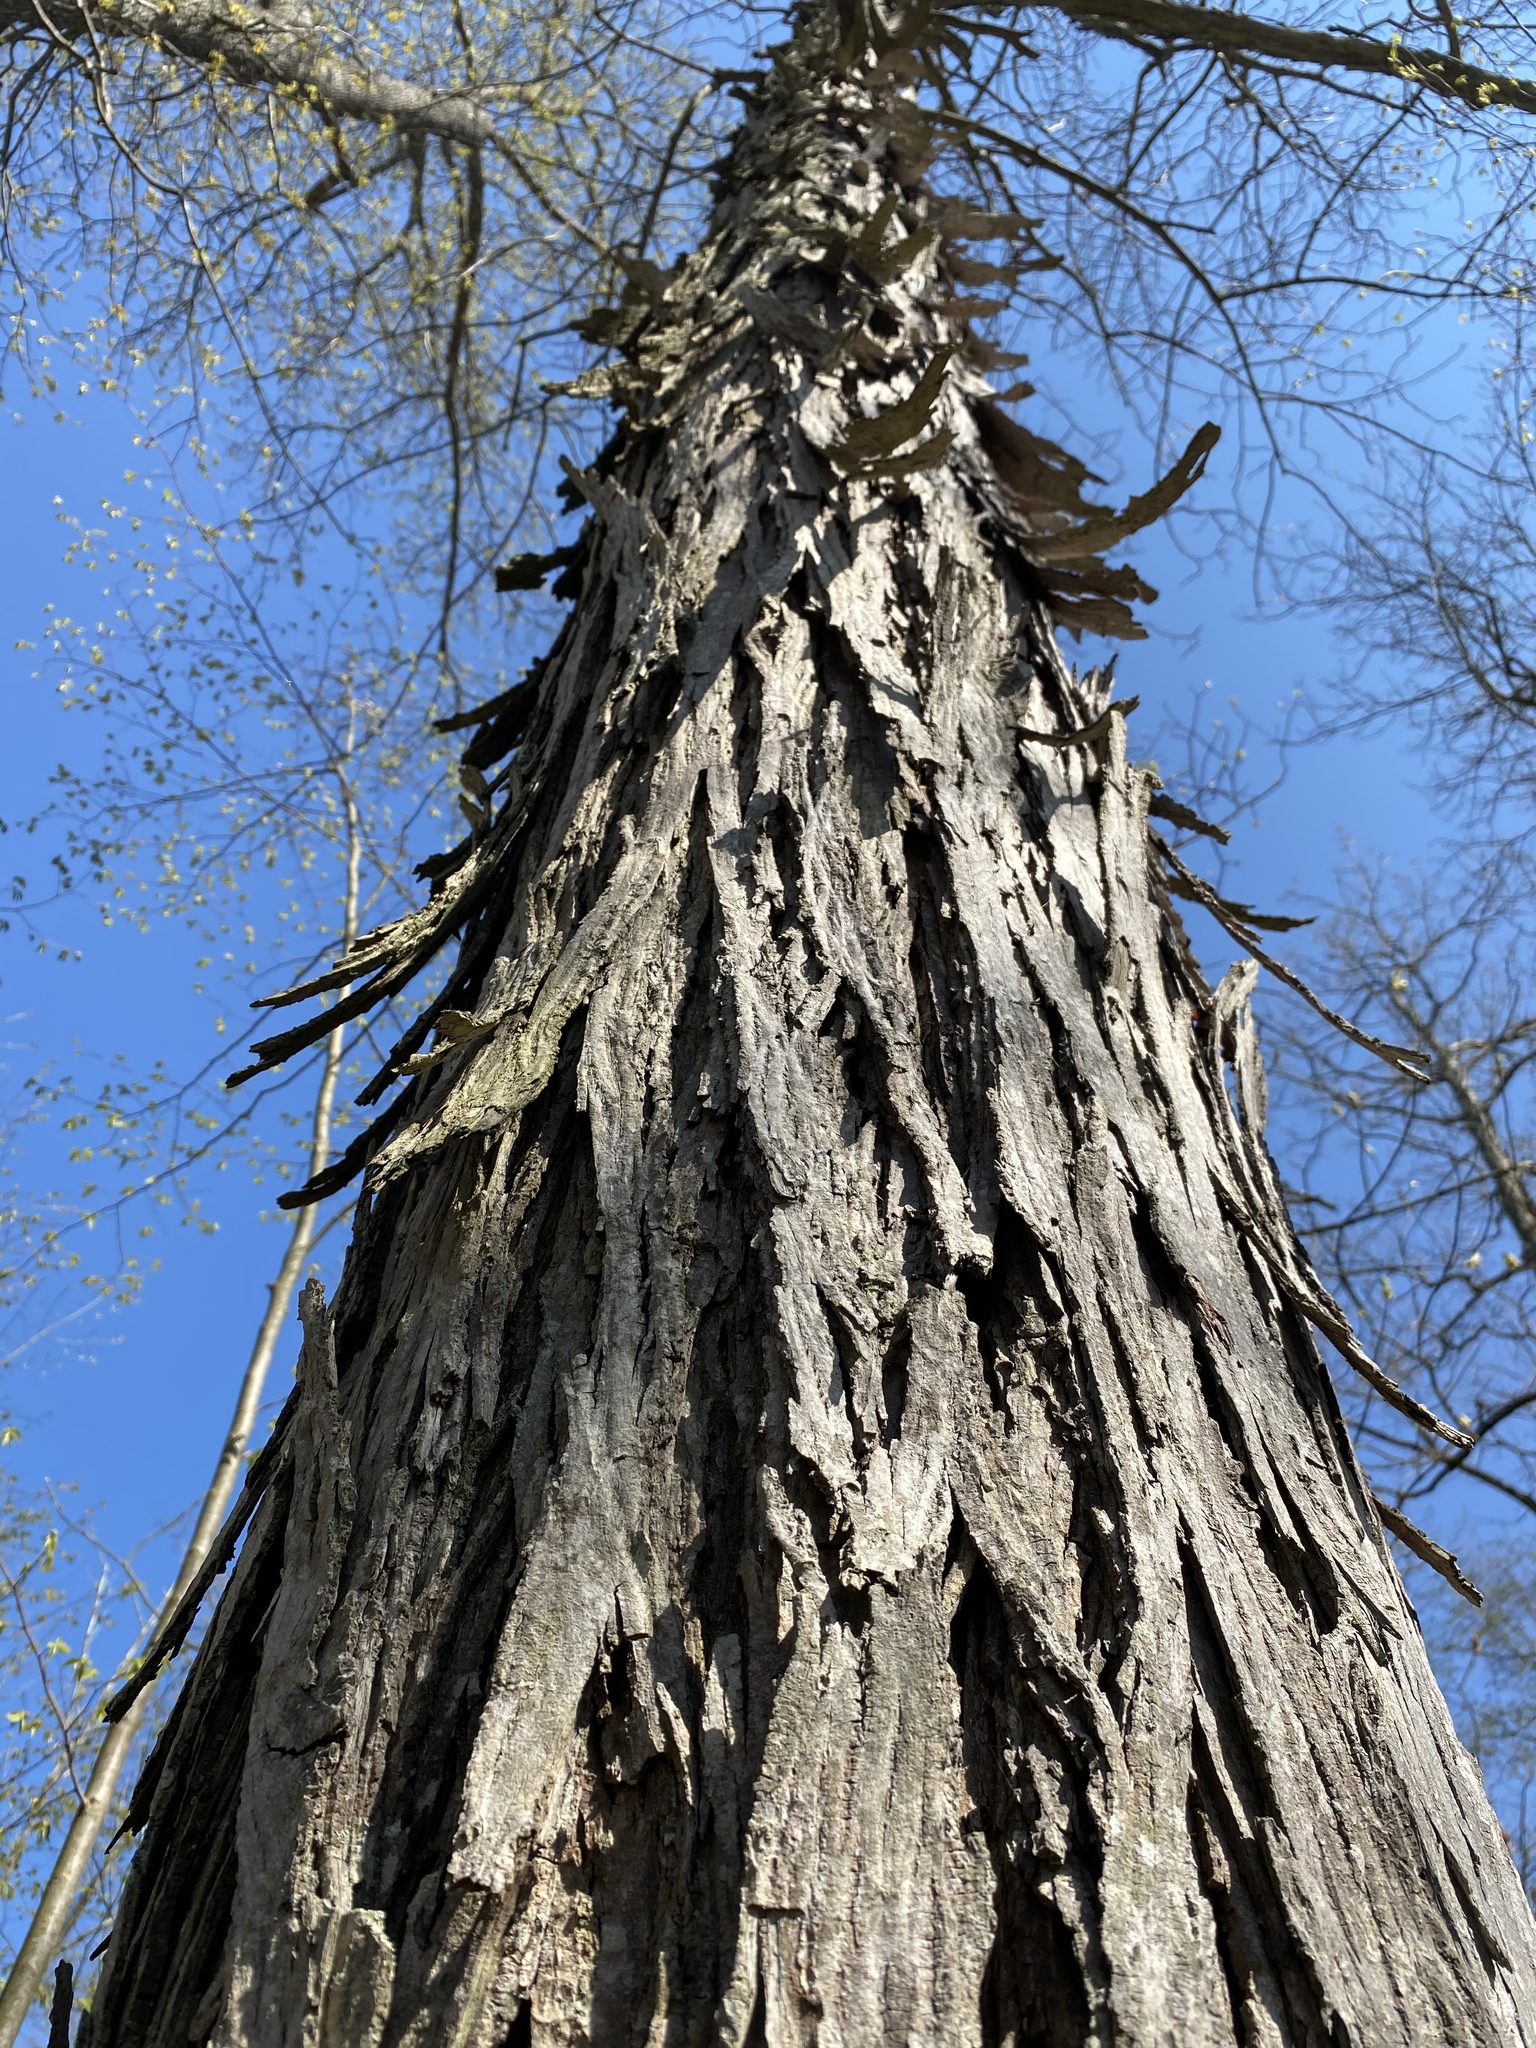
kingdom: Plantae
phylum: Tracheophyta
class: Magnoliopsida
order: Fagales
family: Juglandaceae
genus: Carya
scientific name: Carya ovata
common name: Shagbark hickory
